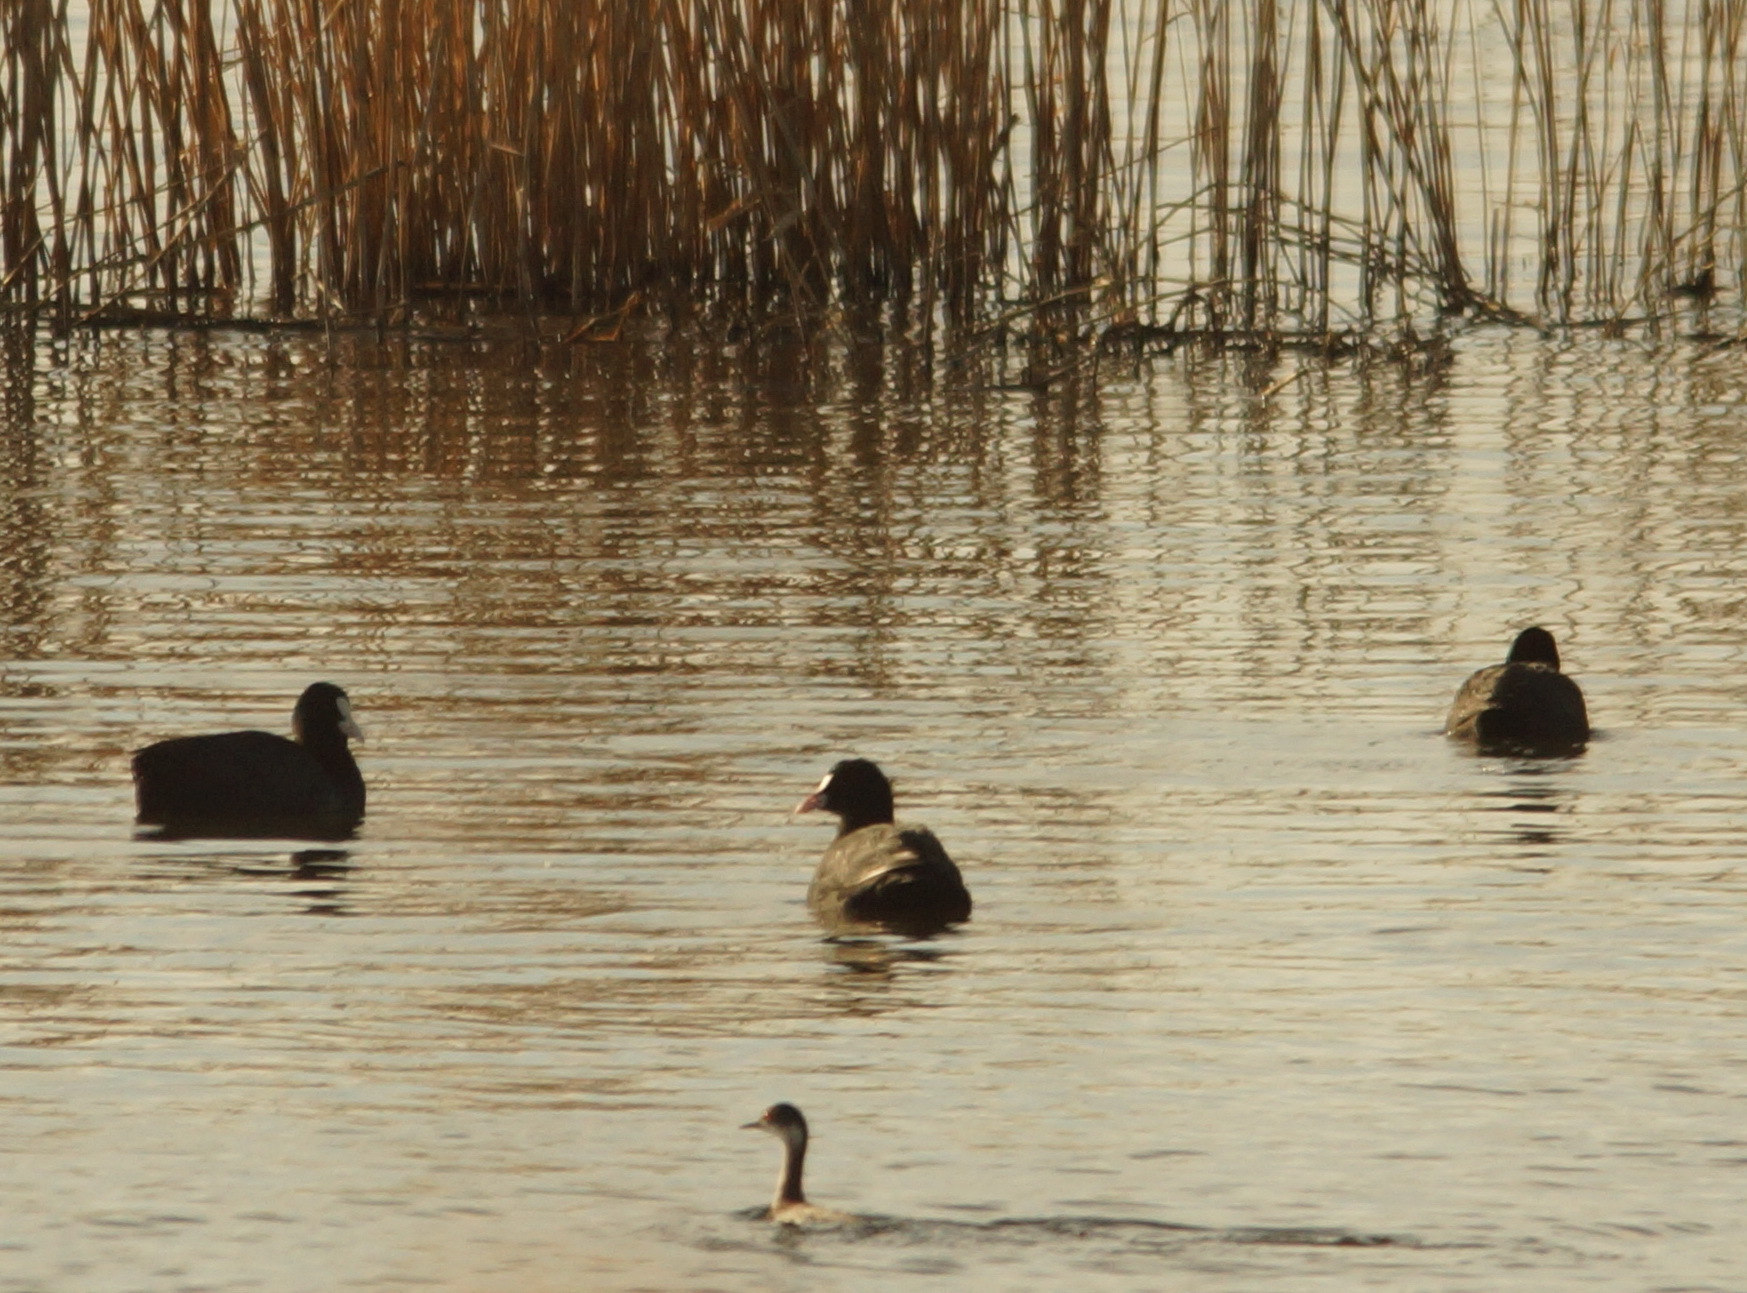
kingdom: Animalia
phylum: Chordata
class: Aves
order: Podicipediformes
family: Podicipedidae
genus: Podiceps
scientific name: Podiceps nigricollis
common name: Black-necked grebe
